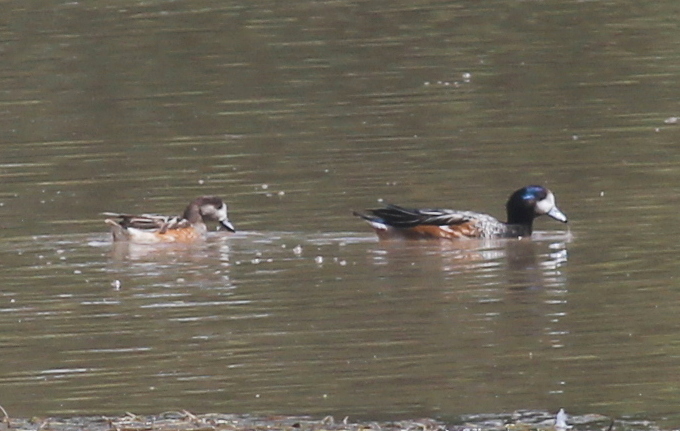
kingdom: Animalia
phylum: Chordata
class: Aves
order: Anseriformes
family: Anatidae
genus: Mareca
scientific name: Mareca sibilatrix
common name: Chiloe wigeon
